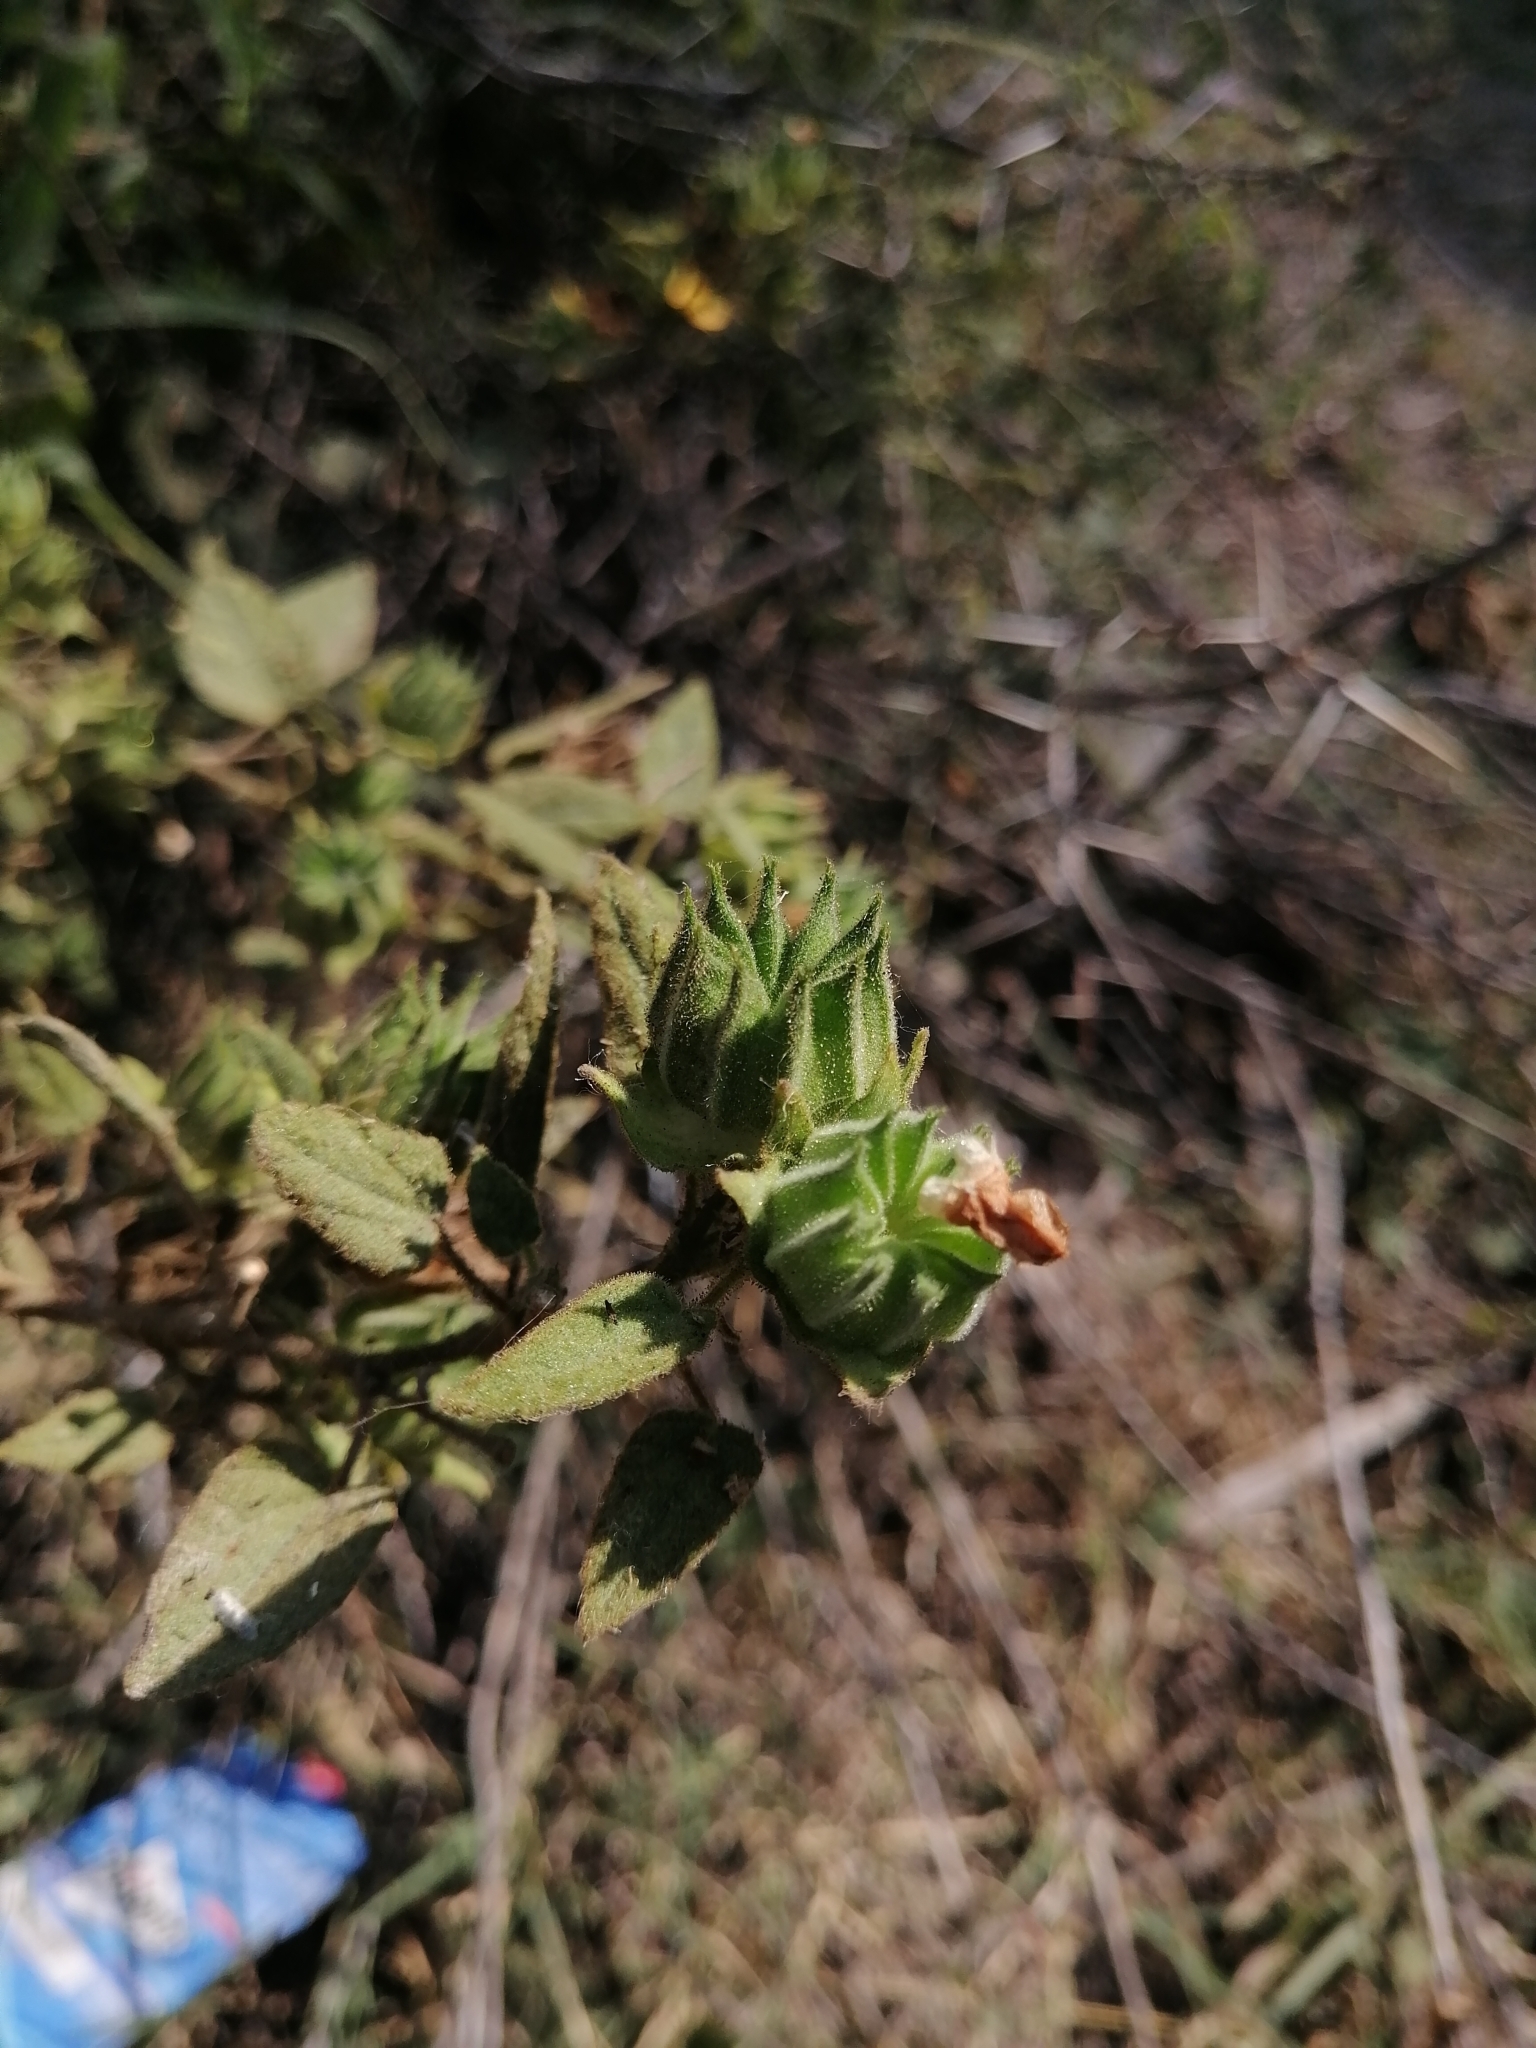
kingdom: Plantae
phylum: Tracheophyta
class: Magnoliopsida
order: Malvales
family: Malvaceae
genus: Abutilon
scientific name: Abutilon dugesii
